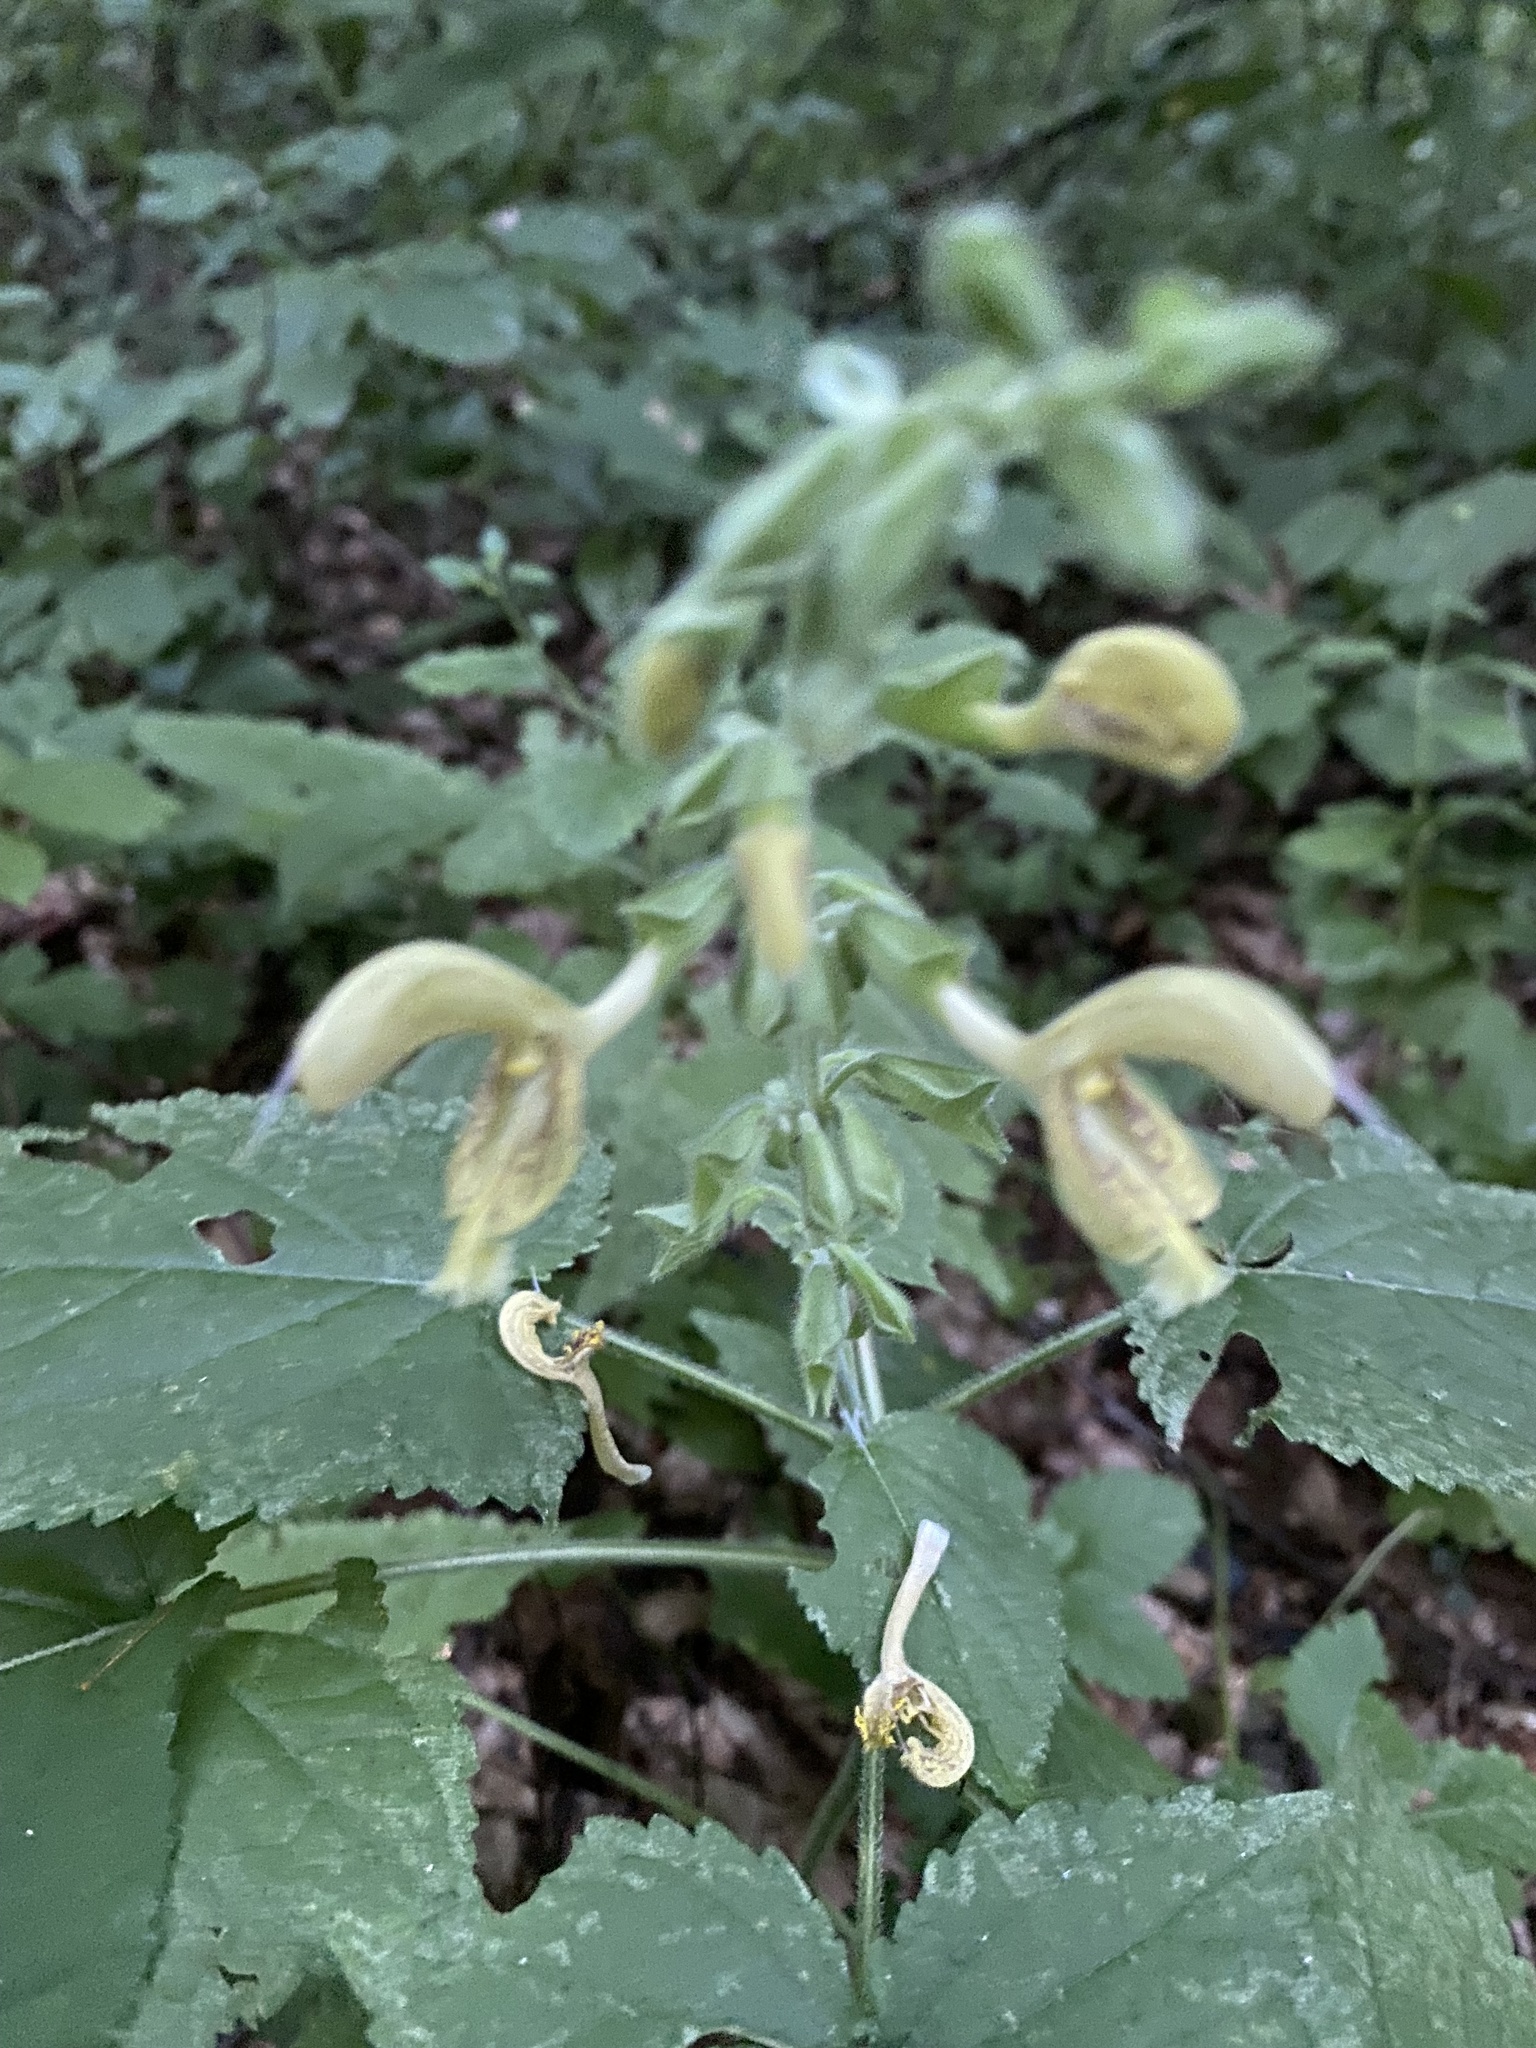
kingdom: Plantae
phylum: Tracheophyta
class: Magnoliopsida
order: Lamiales
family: Lamiaceae
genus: Salvia
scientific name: Salvia glutinosa
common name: Sticky clary
